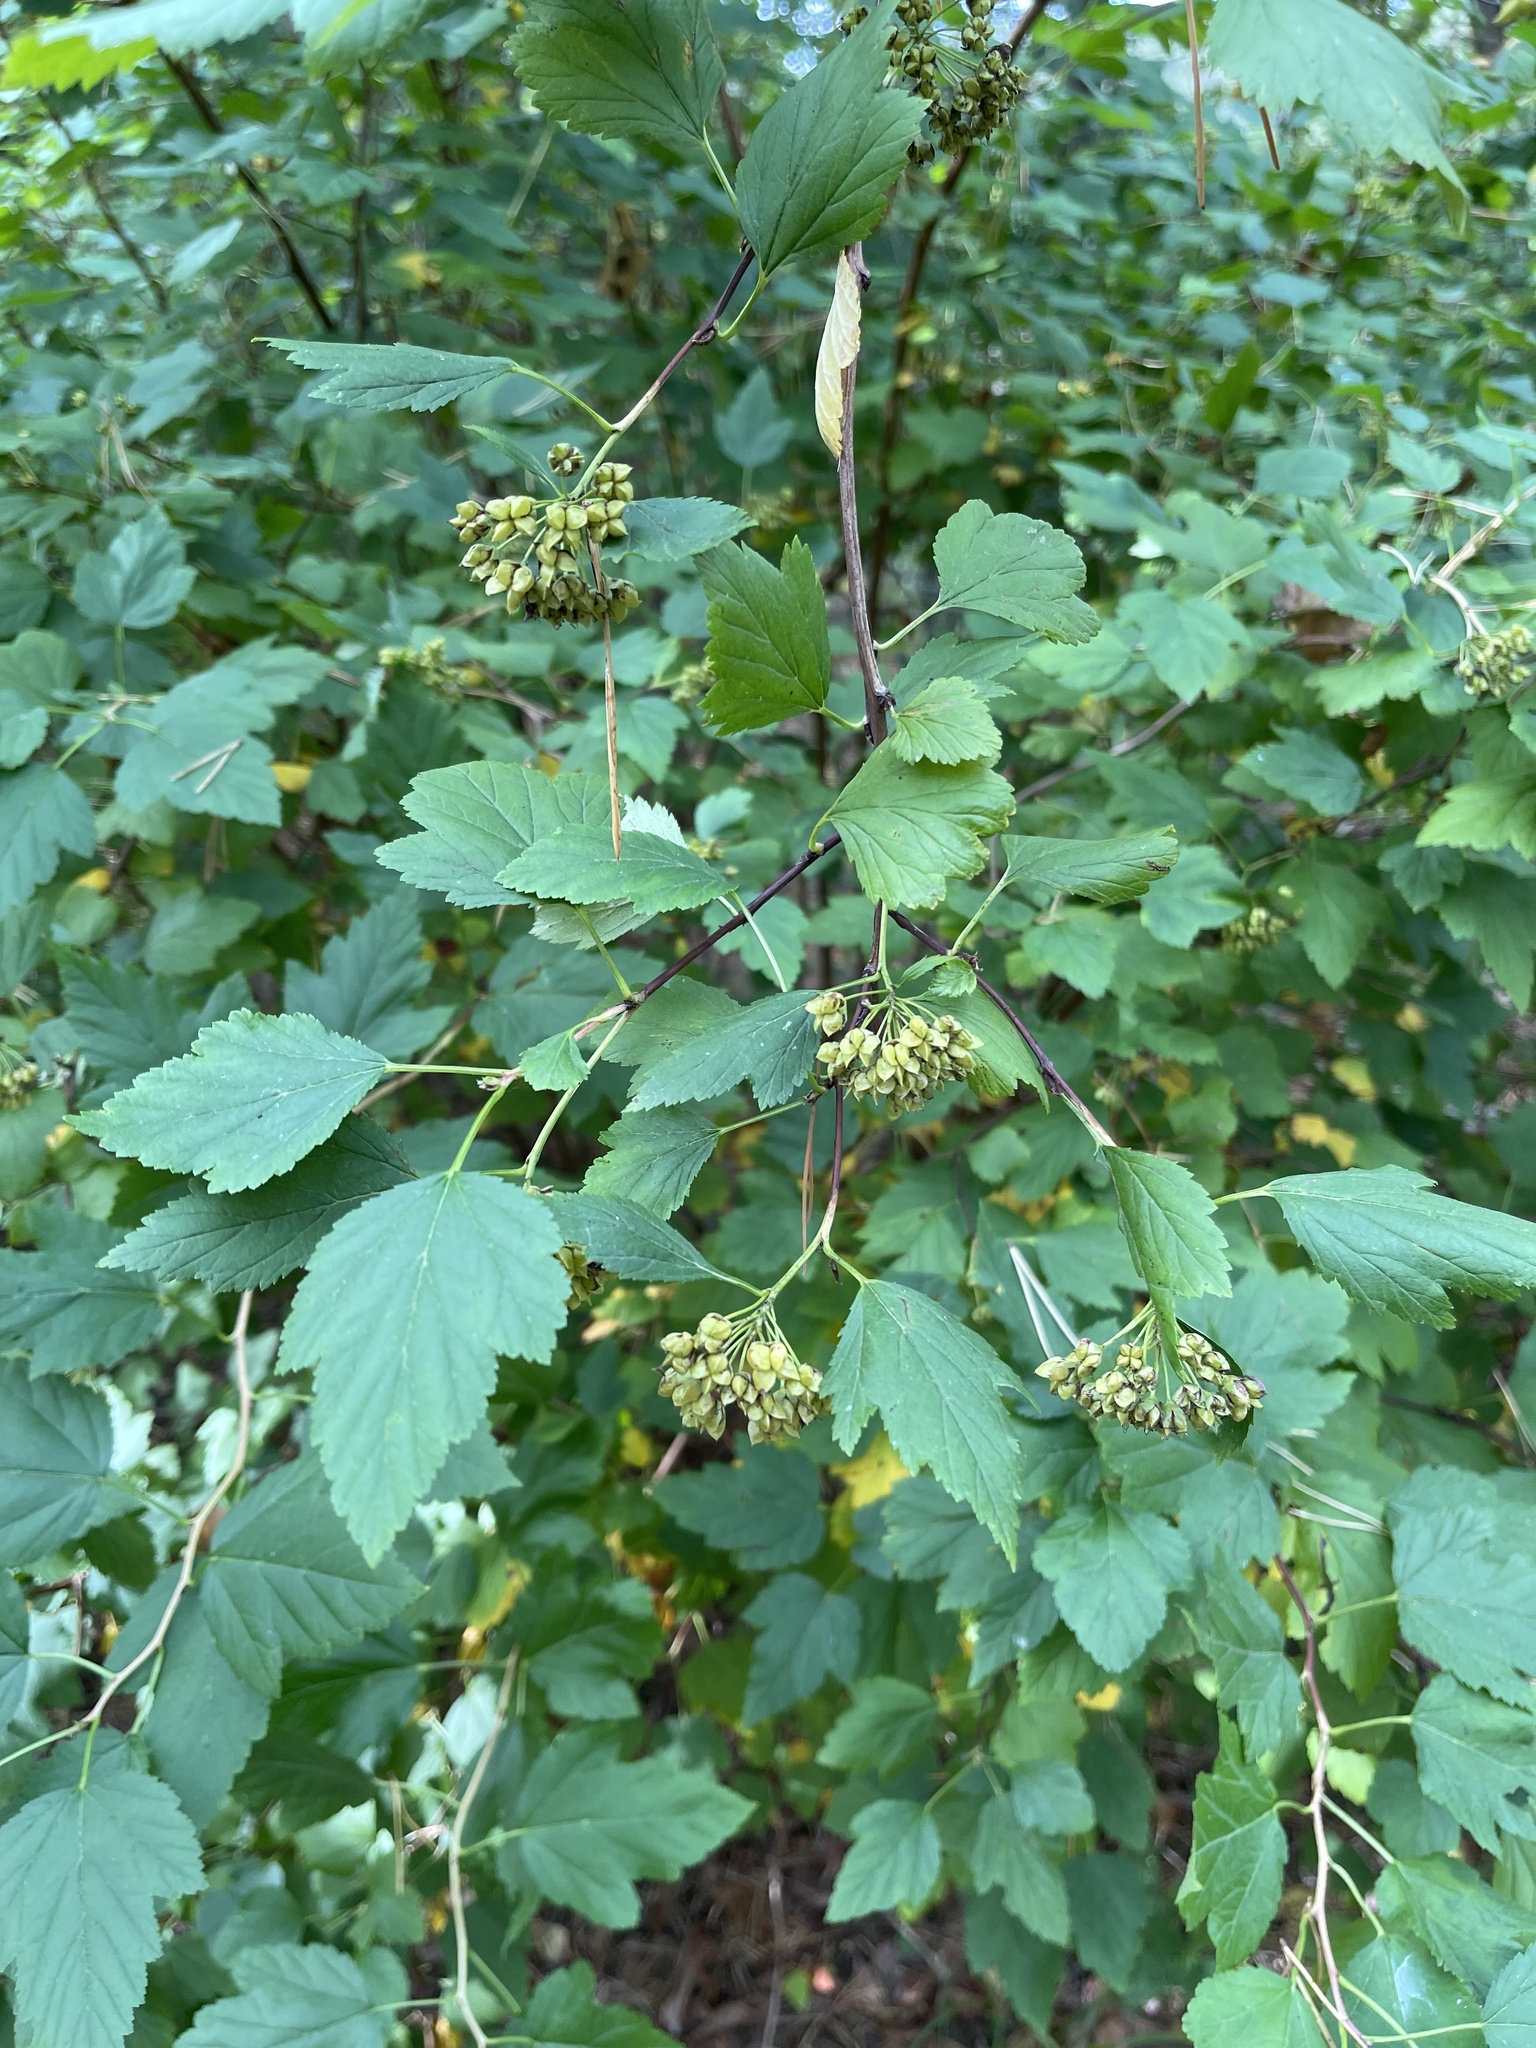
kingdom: Plantae
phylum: Tracheophyta
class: Magnoliopsida
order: Rosales
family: Rosaceae
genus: Physocarpus
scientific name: Physocarpus opulifolius
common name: Ninebark
